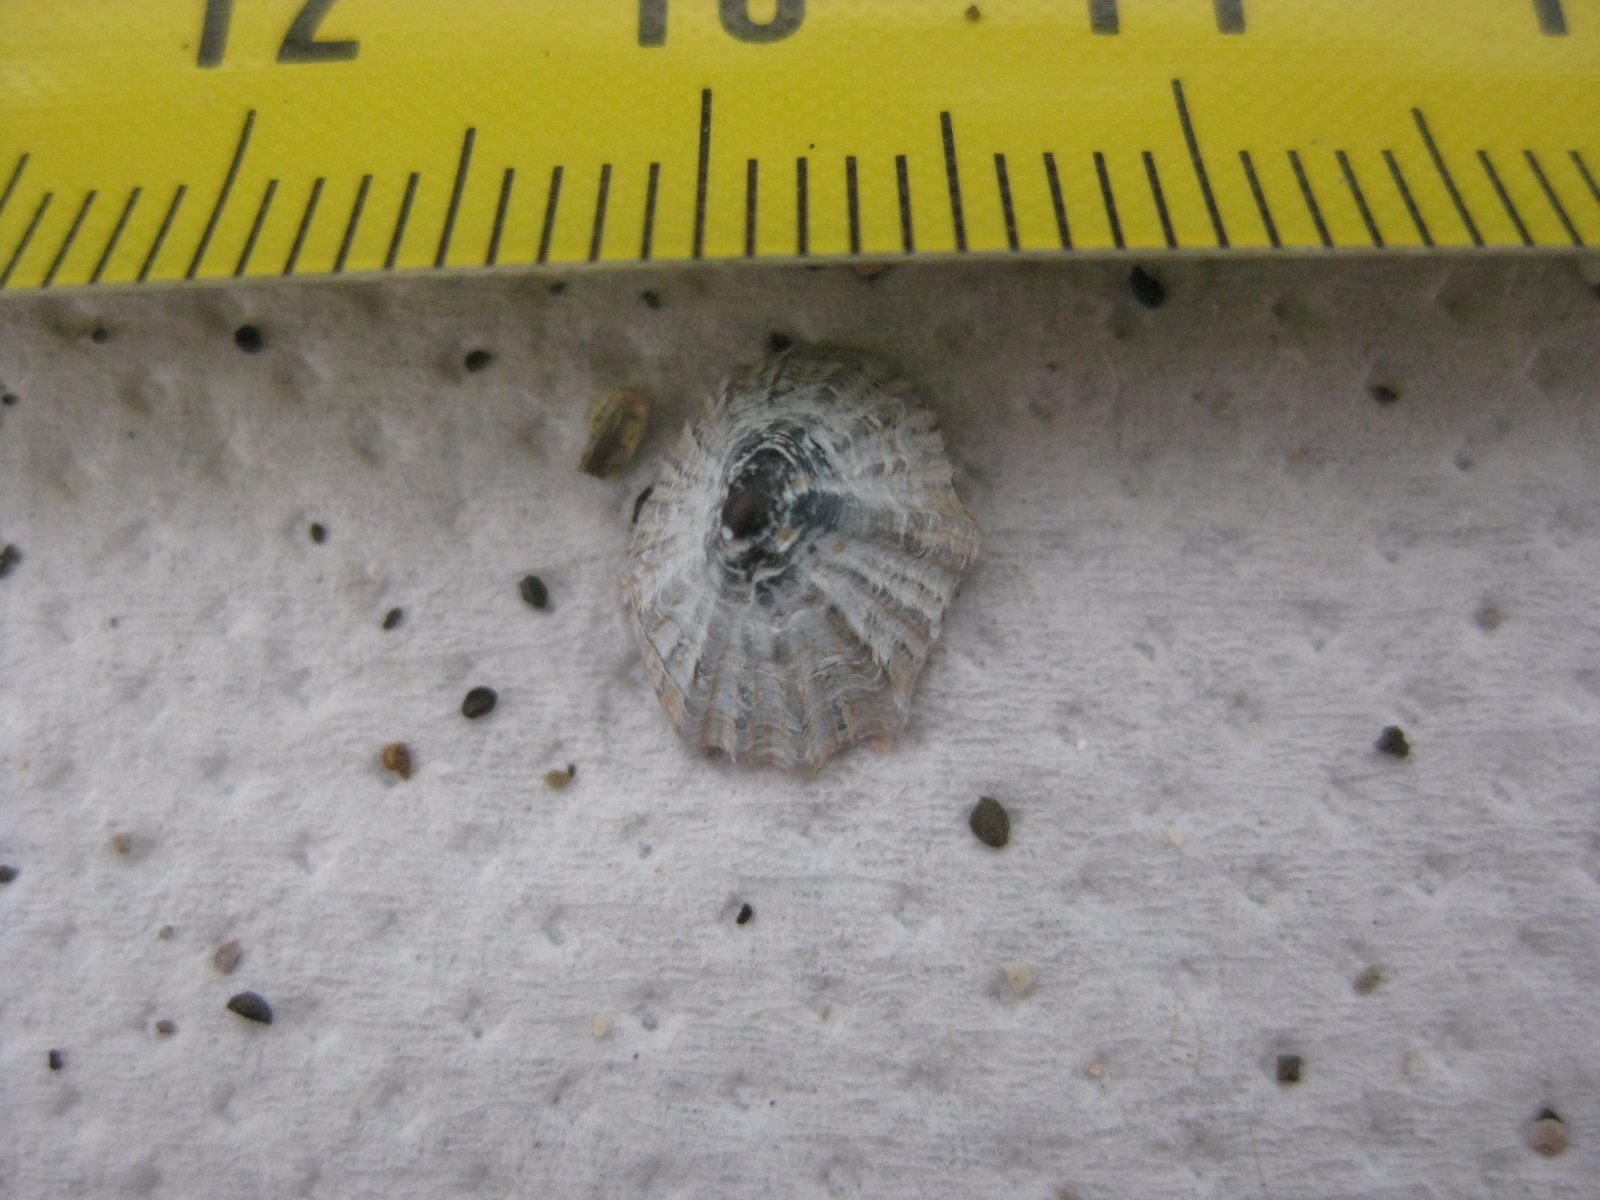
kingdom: Animalia
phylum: Mollusca
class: Gastropoda
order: Siphonariida
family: Siphonariidae
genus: Siphonaria
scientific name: Siphonaria australis
